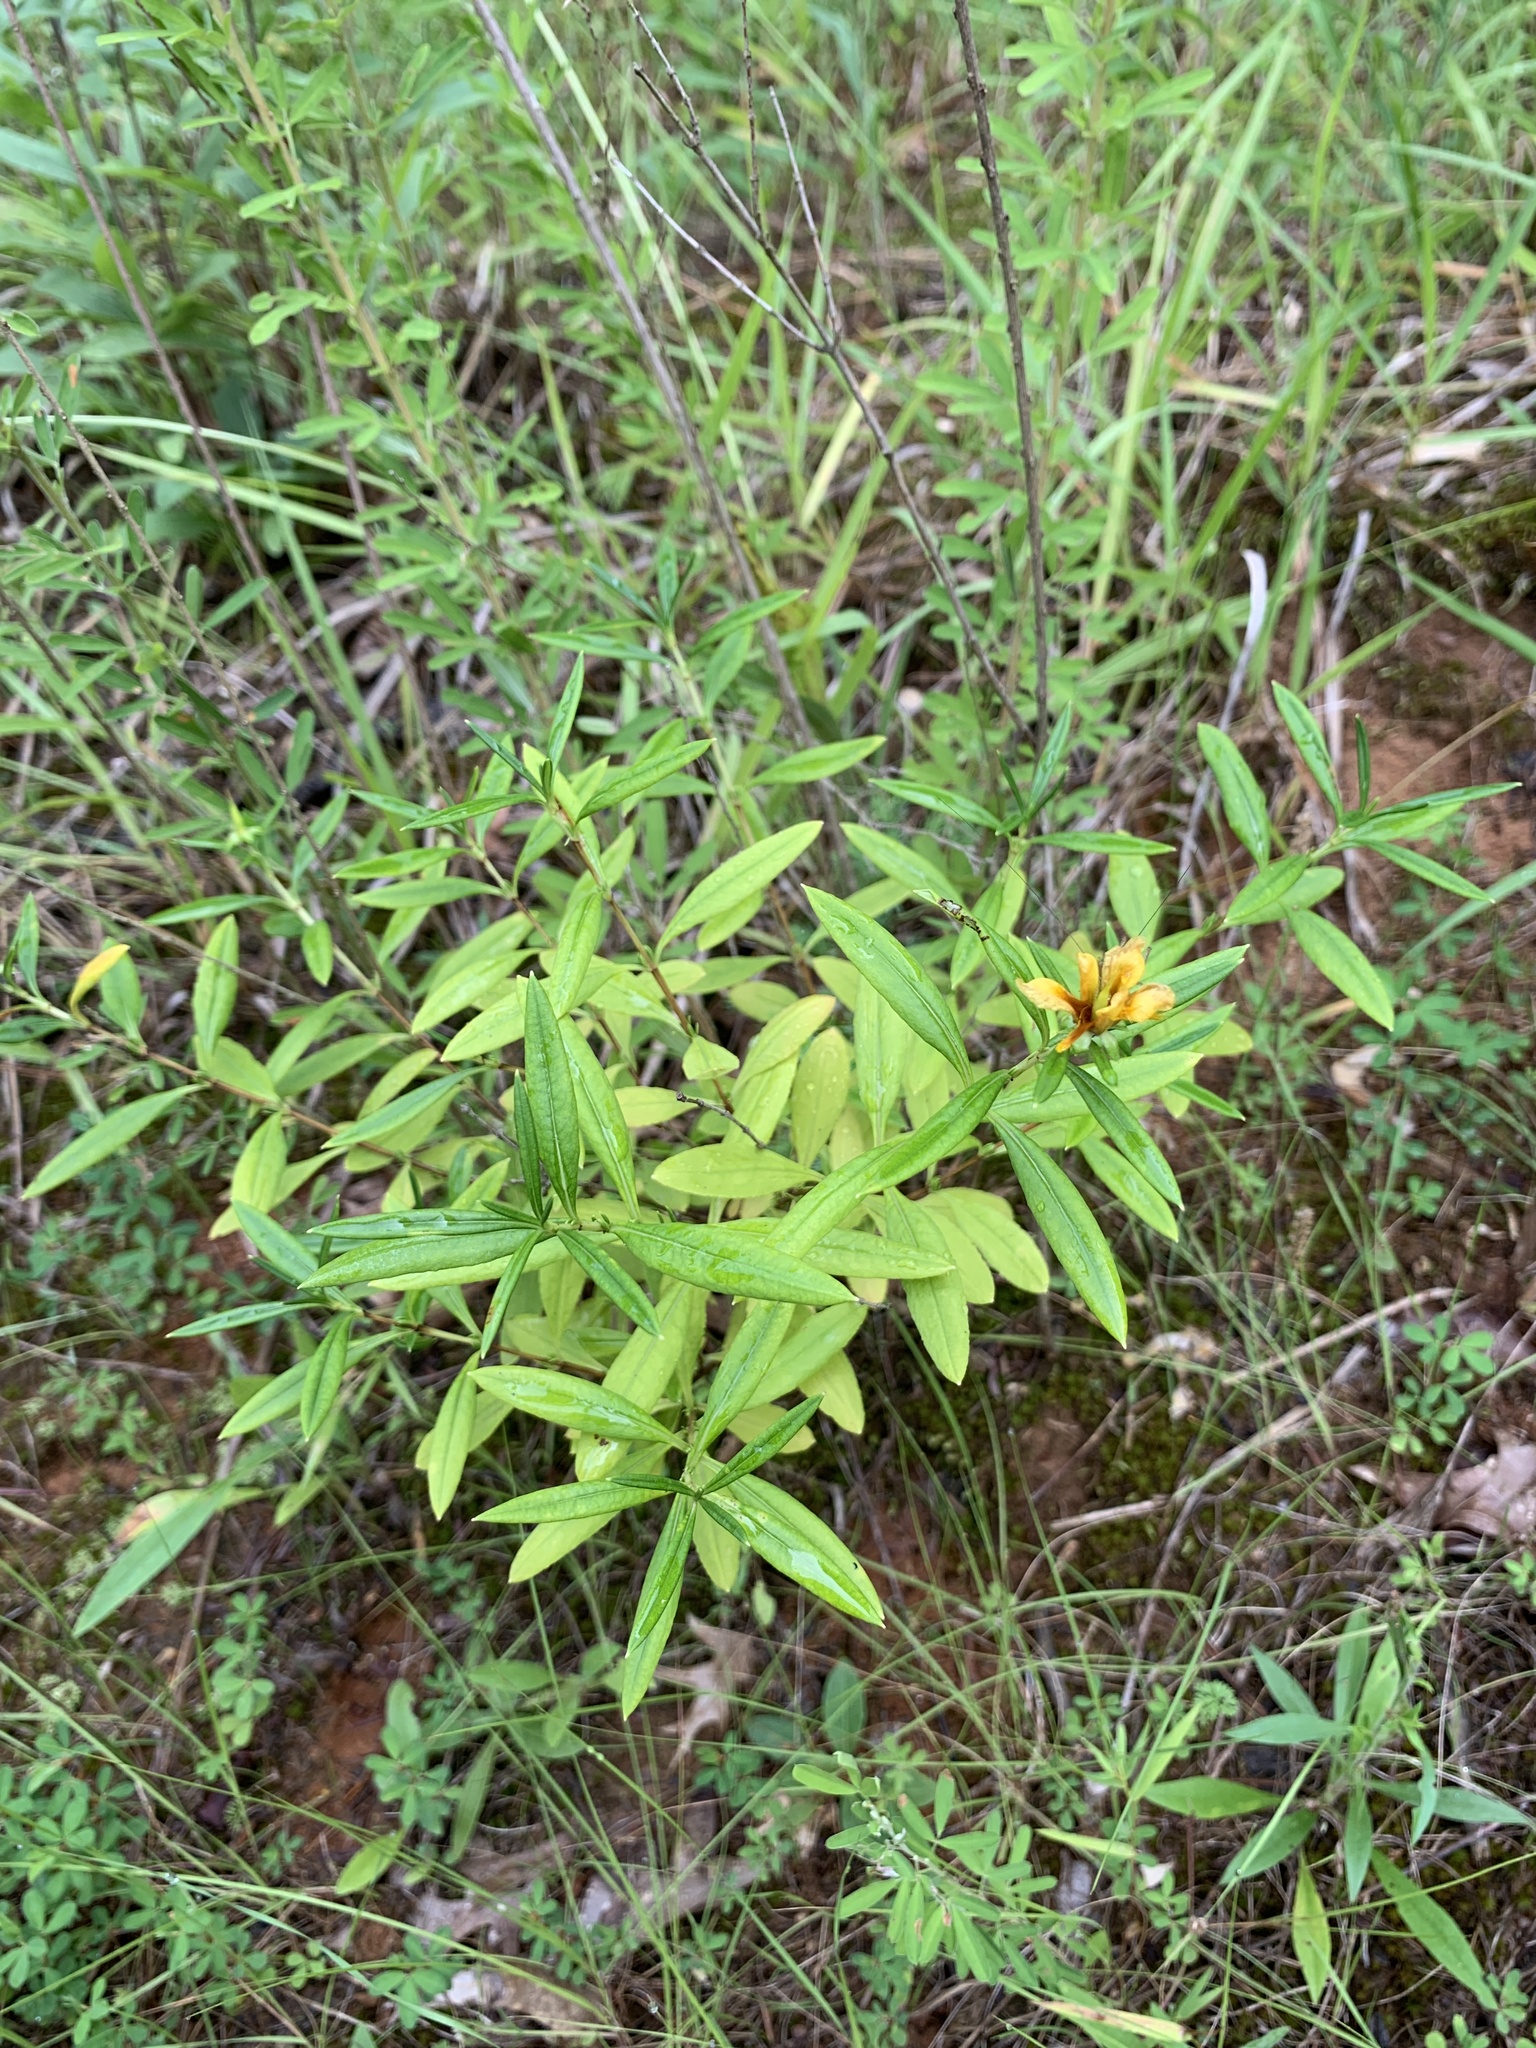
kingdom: Plantae
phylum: Tracheophyta
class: Magnoliopsida
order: Malpighiales
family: Hypericaceae
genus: Hypericum
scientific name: Hypericum prolificum
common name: Shrubby st. john's-wort
